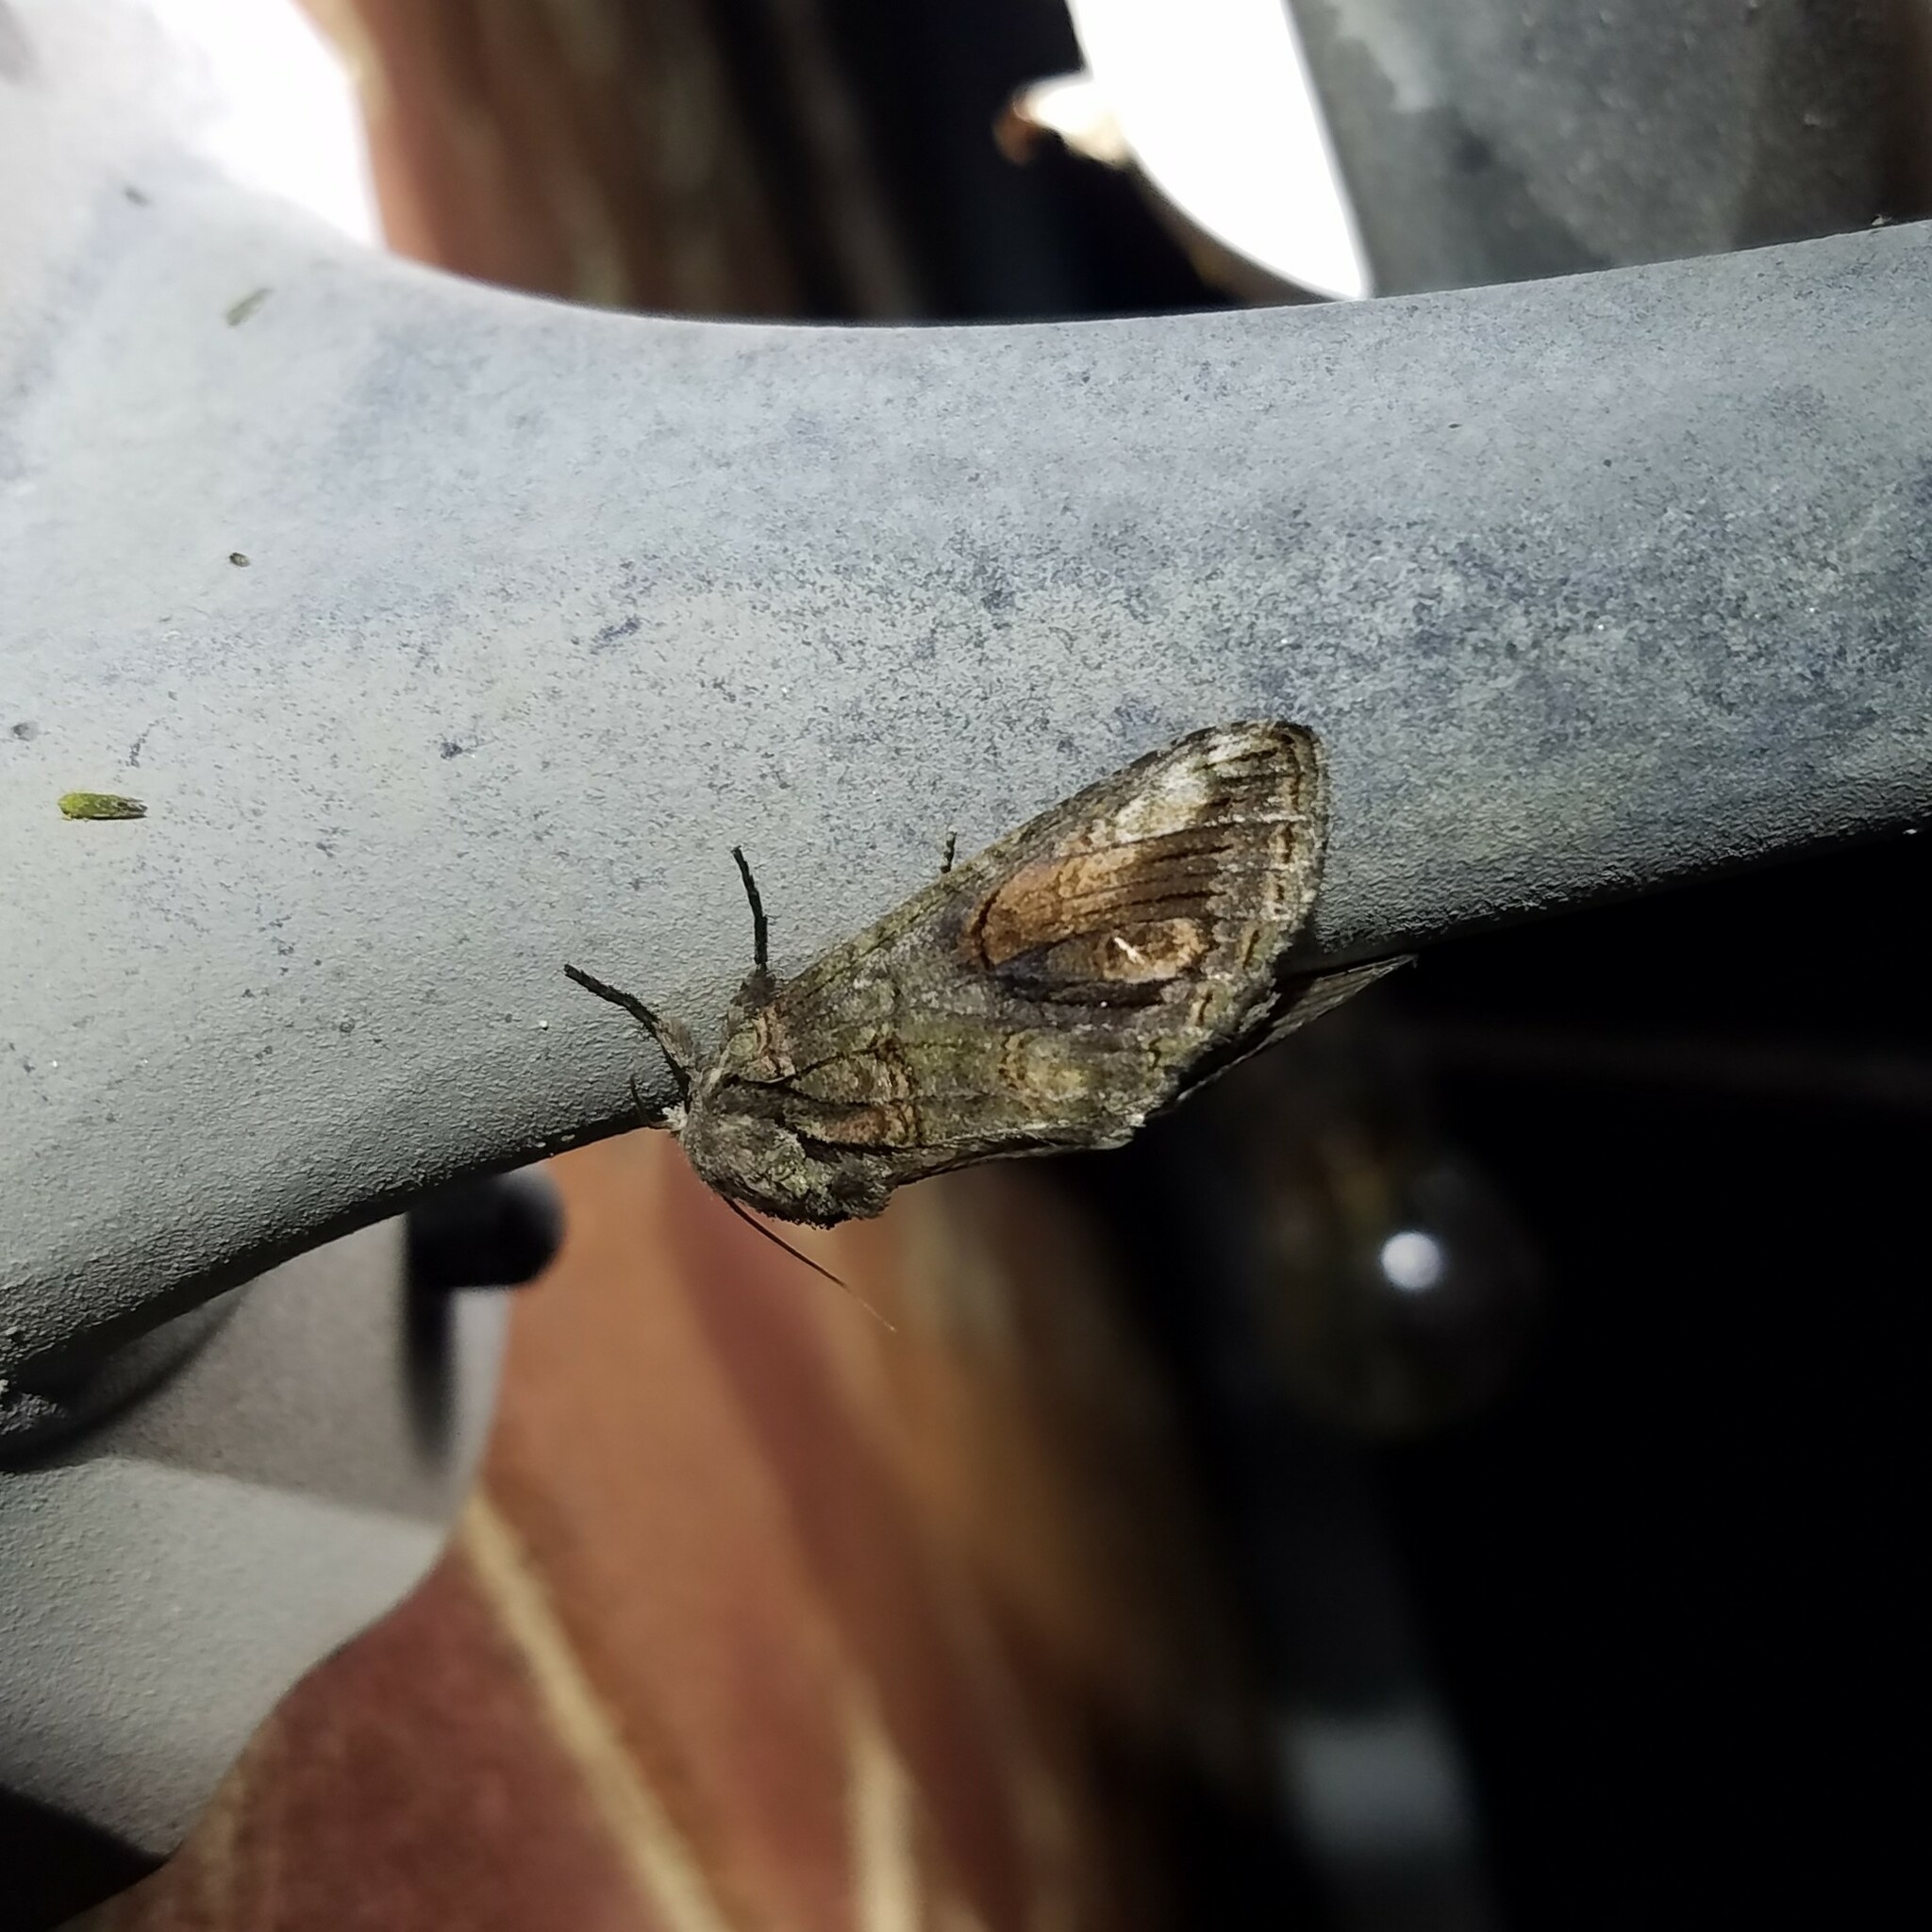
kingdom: Animalia
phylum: Arthropoda
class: Insecta
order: Lepidoptera
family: Notodontidae
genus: Heterocampa
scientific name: Heterocampa obliqua
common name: Oblique heterocampa
